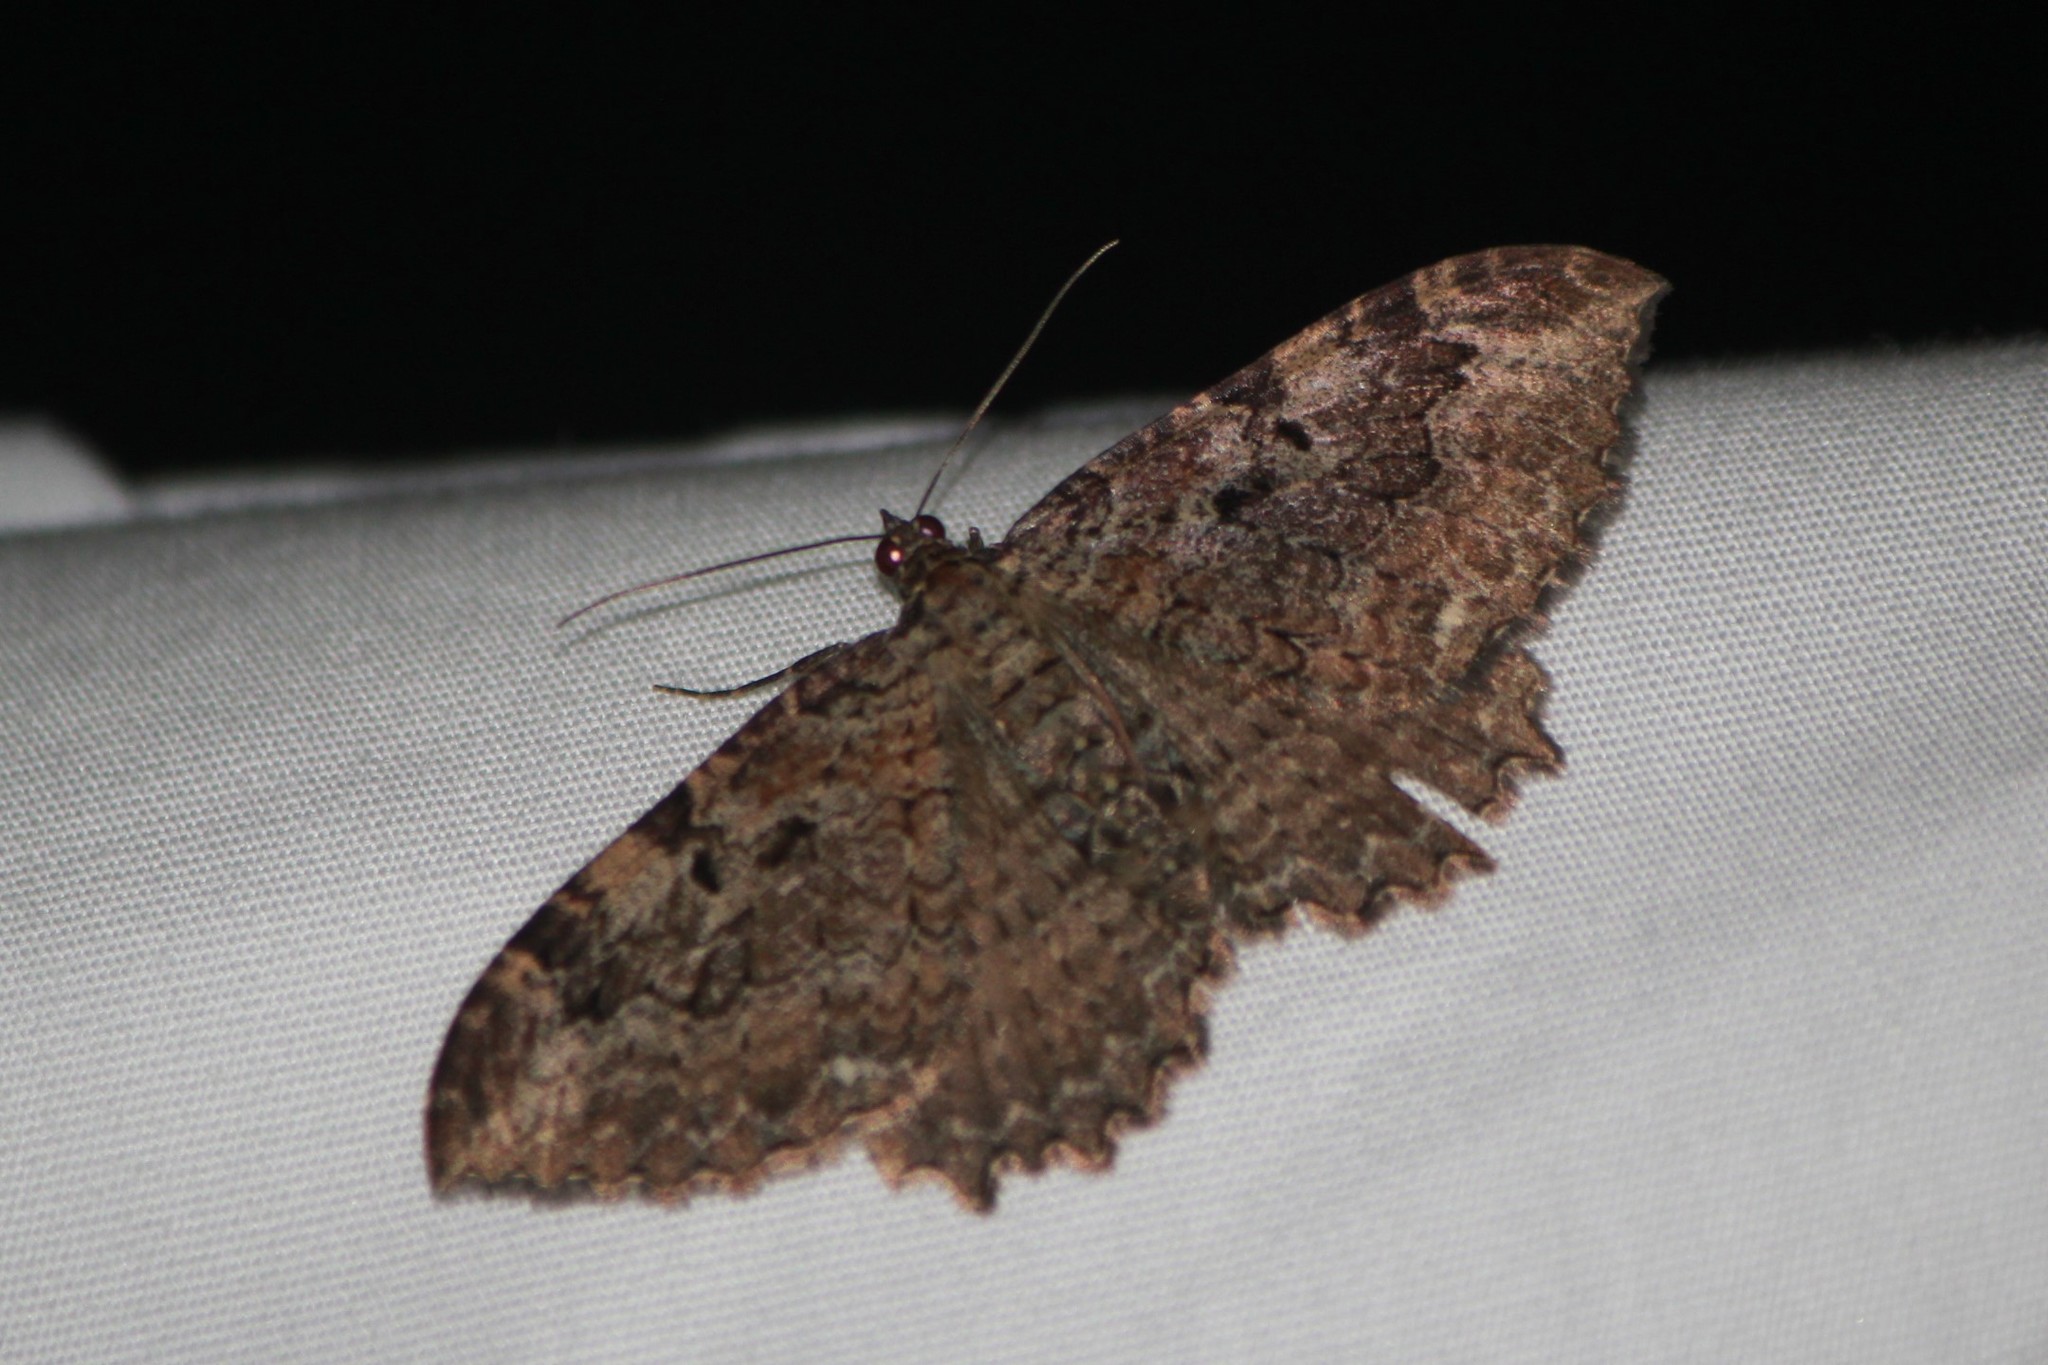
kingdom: Animalia
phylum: Arthropoda
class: Insecta
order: Lepidoptera
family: Geometridae
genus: Rheumaptera
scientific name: Rheumaptera
